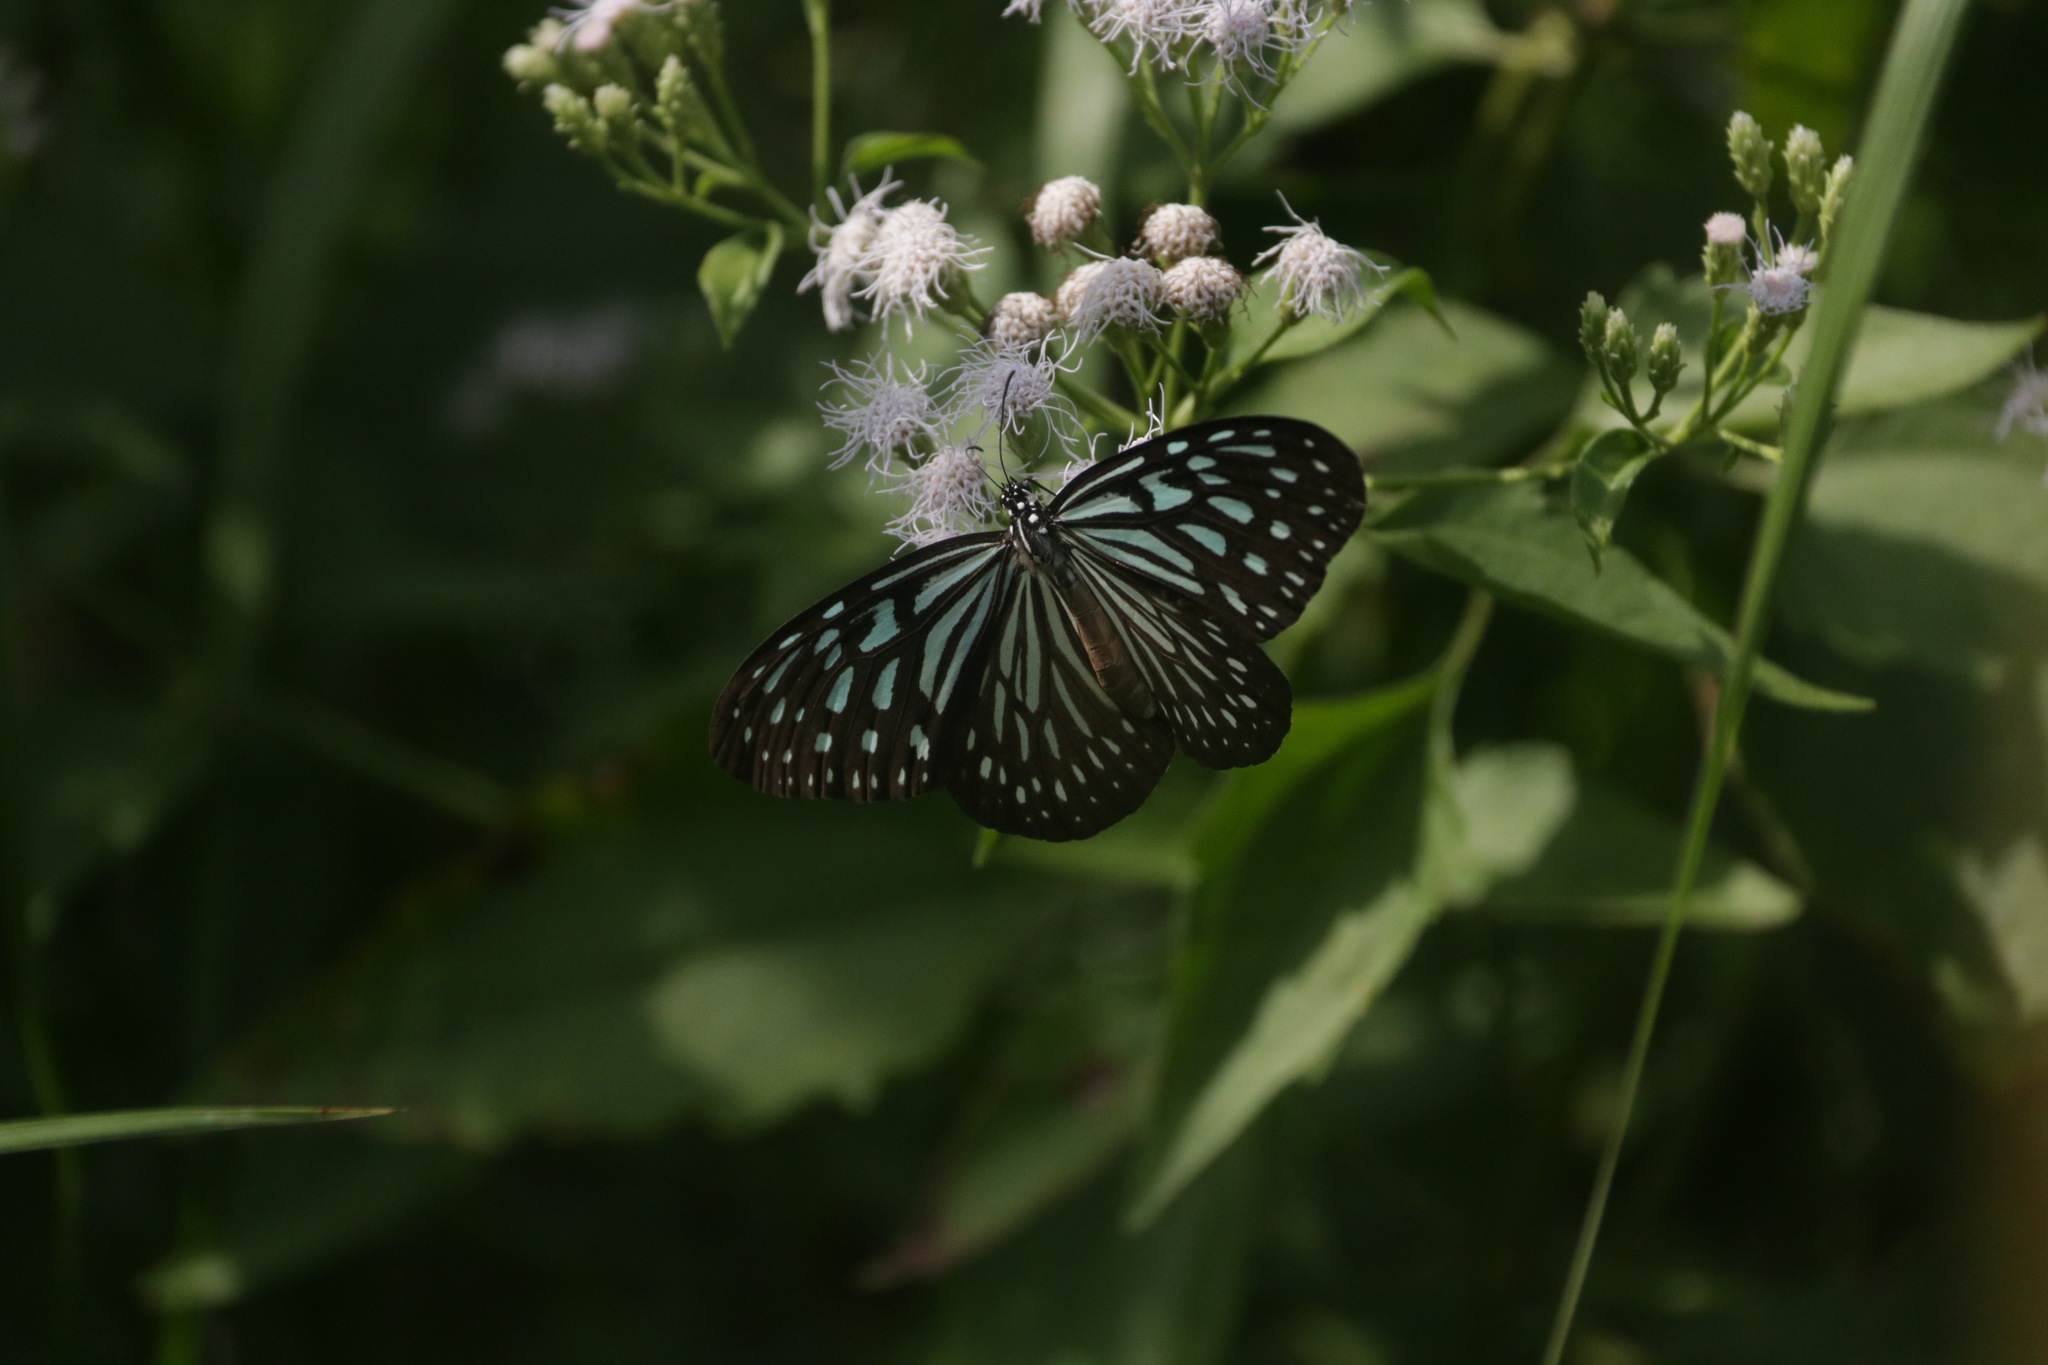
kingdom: Animalia
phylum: Arthropoda
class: Insecta
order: Lepidoptera
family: Nymphalidae
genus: Ideopsis
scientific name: Ideopsis vulgaris
